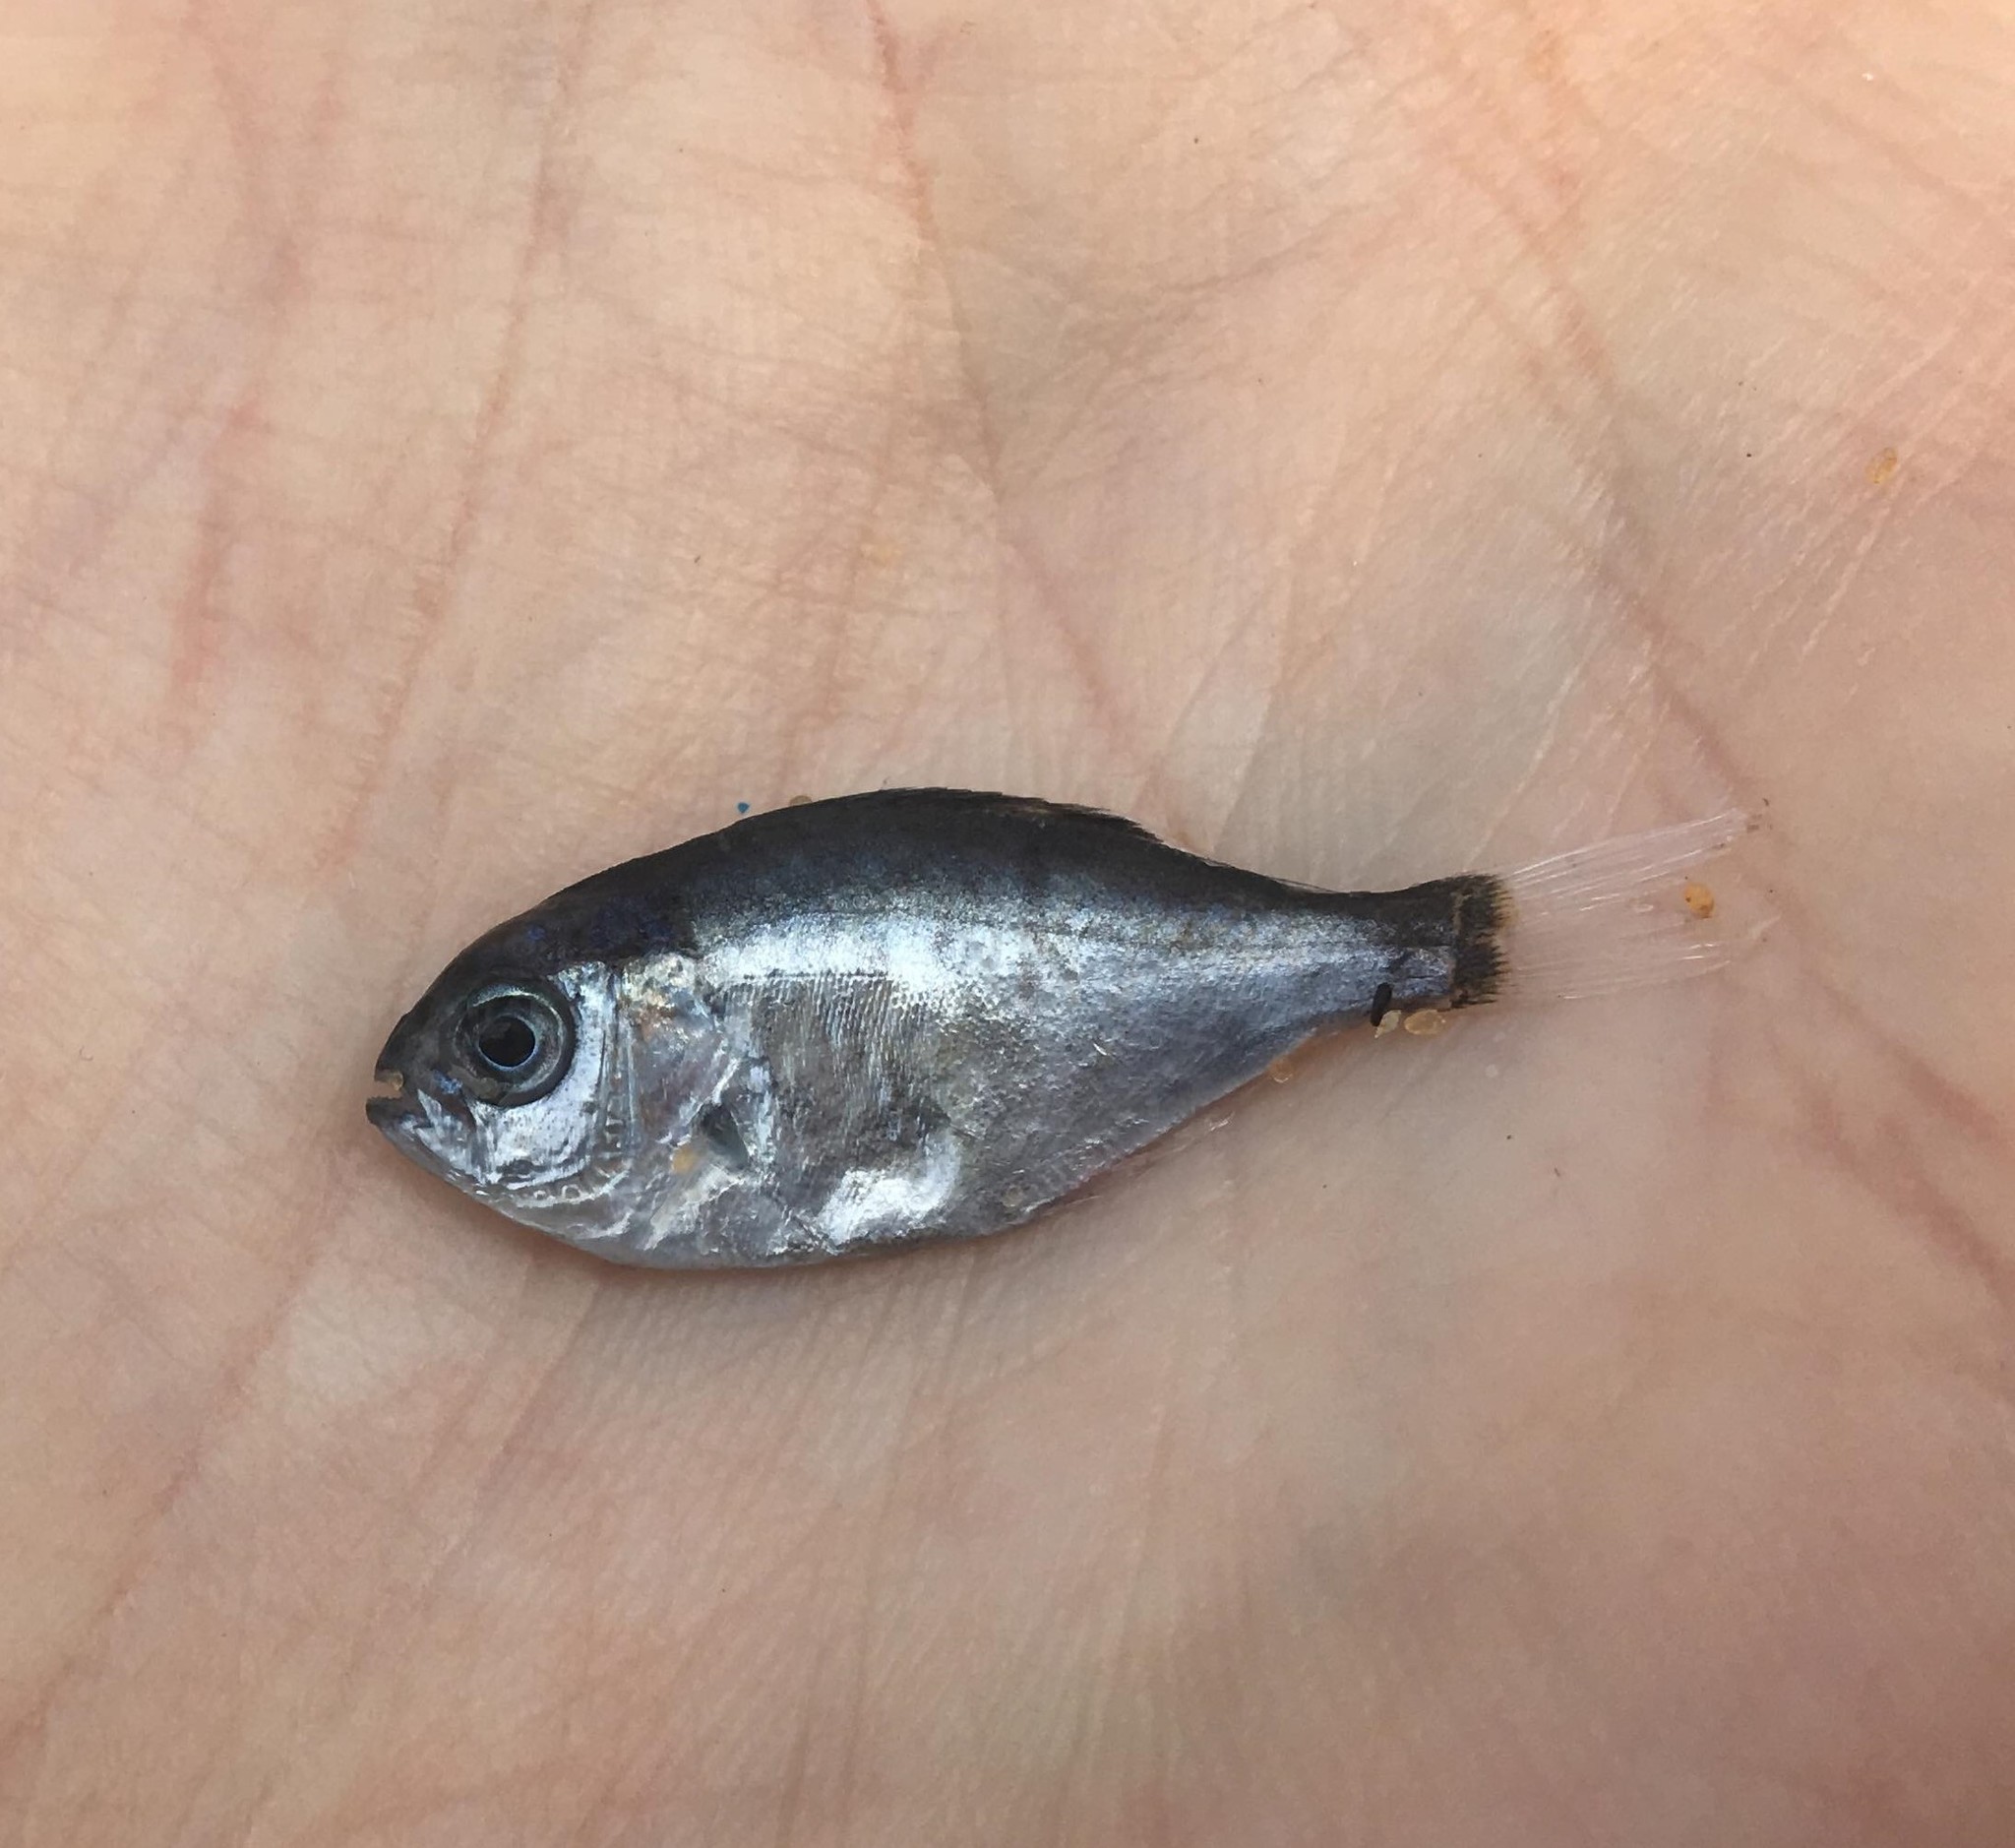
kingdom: Animalia
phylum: Chordata
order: Perciformes
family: Kyphosidae
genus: Scorpis
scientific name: Scorpis lineolata
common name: Sweep
